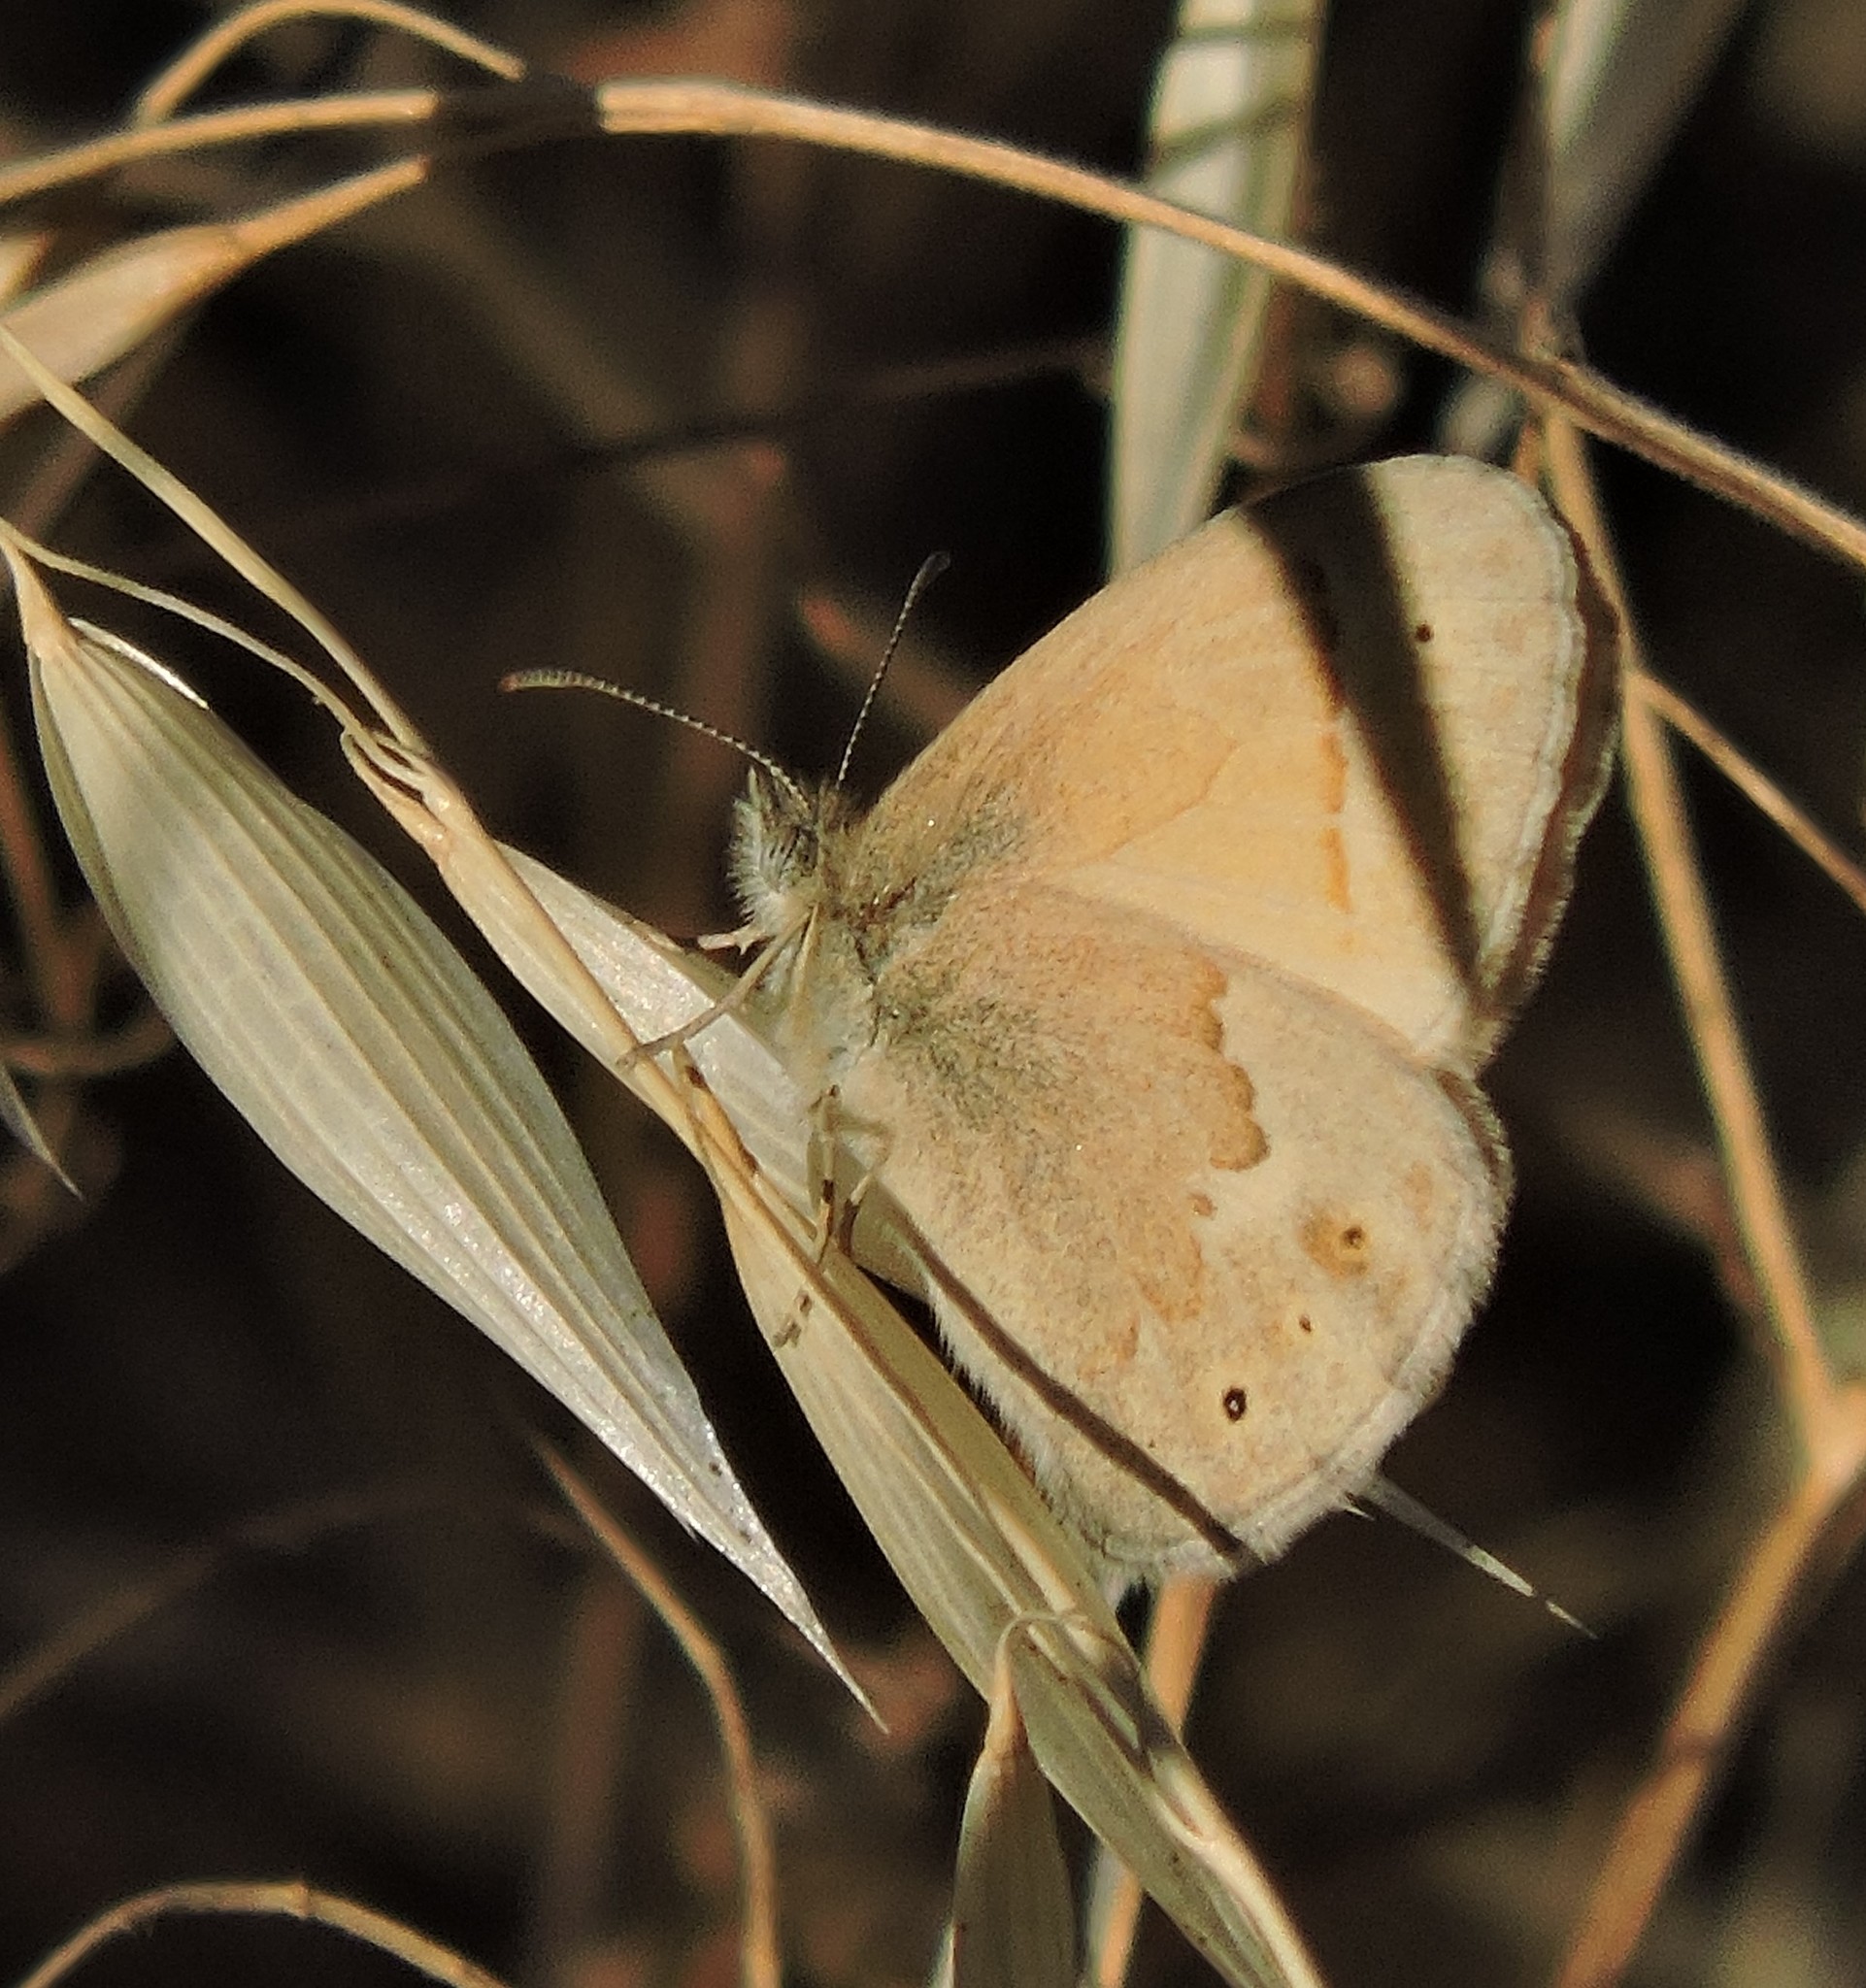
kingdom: Animalia
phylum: Arthropoda
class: Insecta
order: Lepidoptera
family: Nymphalidae
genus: Coenonympha
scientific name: Coenonympha california
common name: Common ringlet
